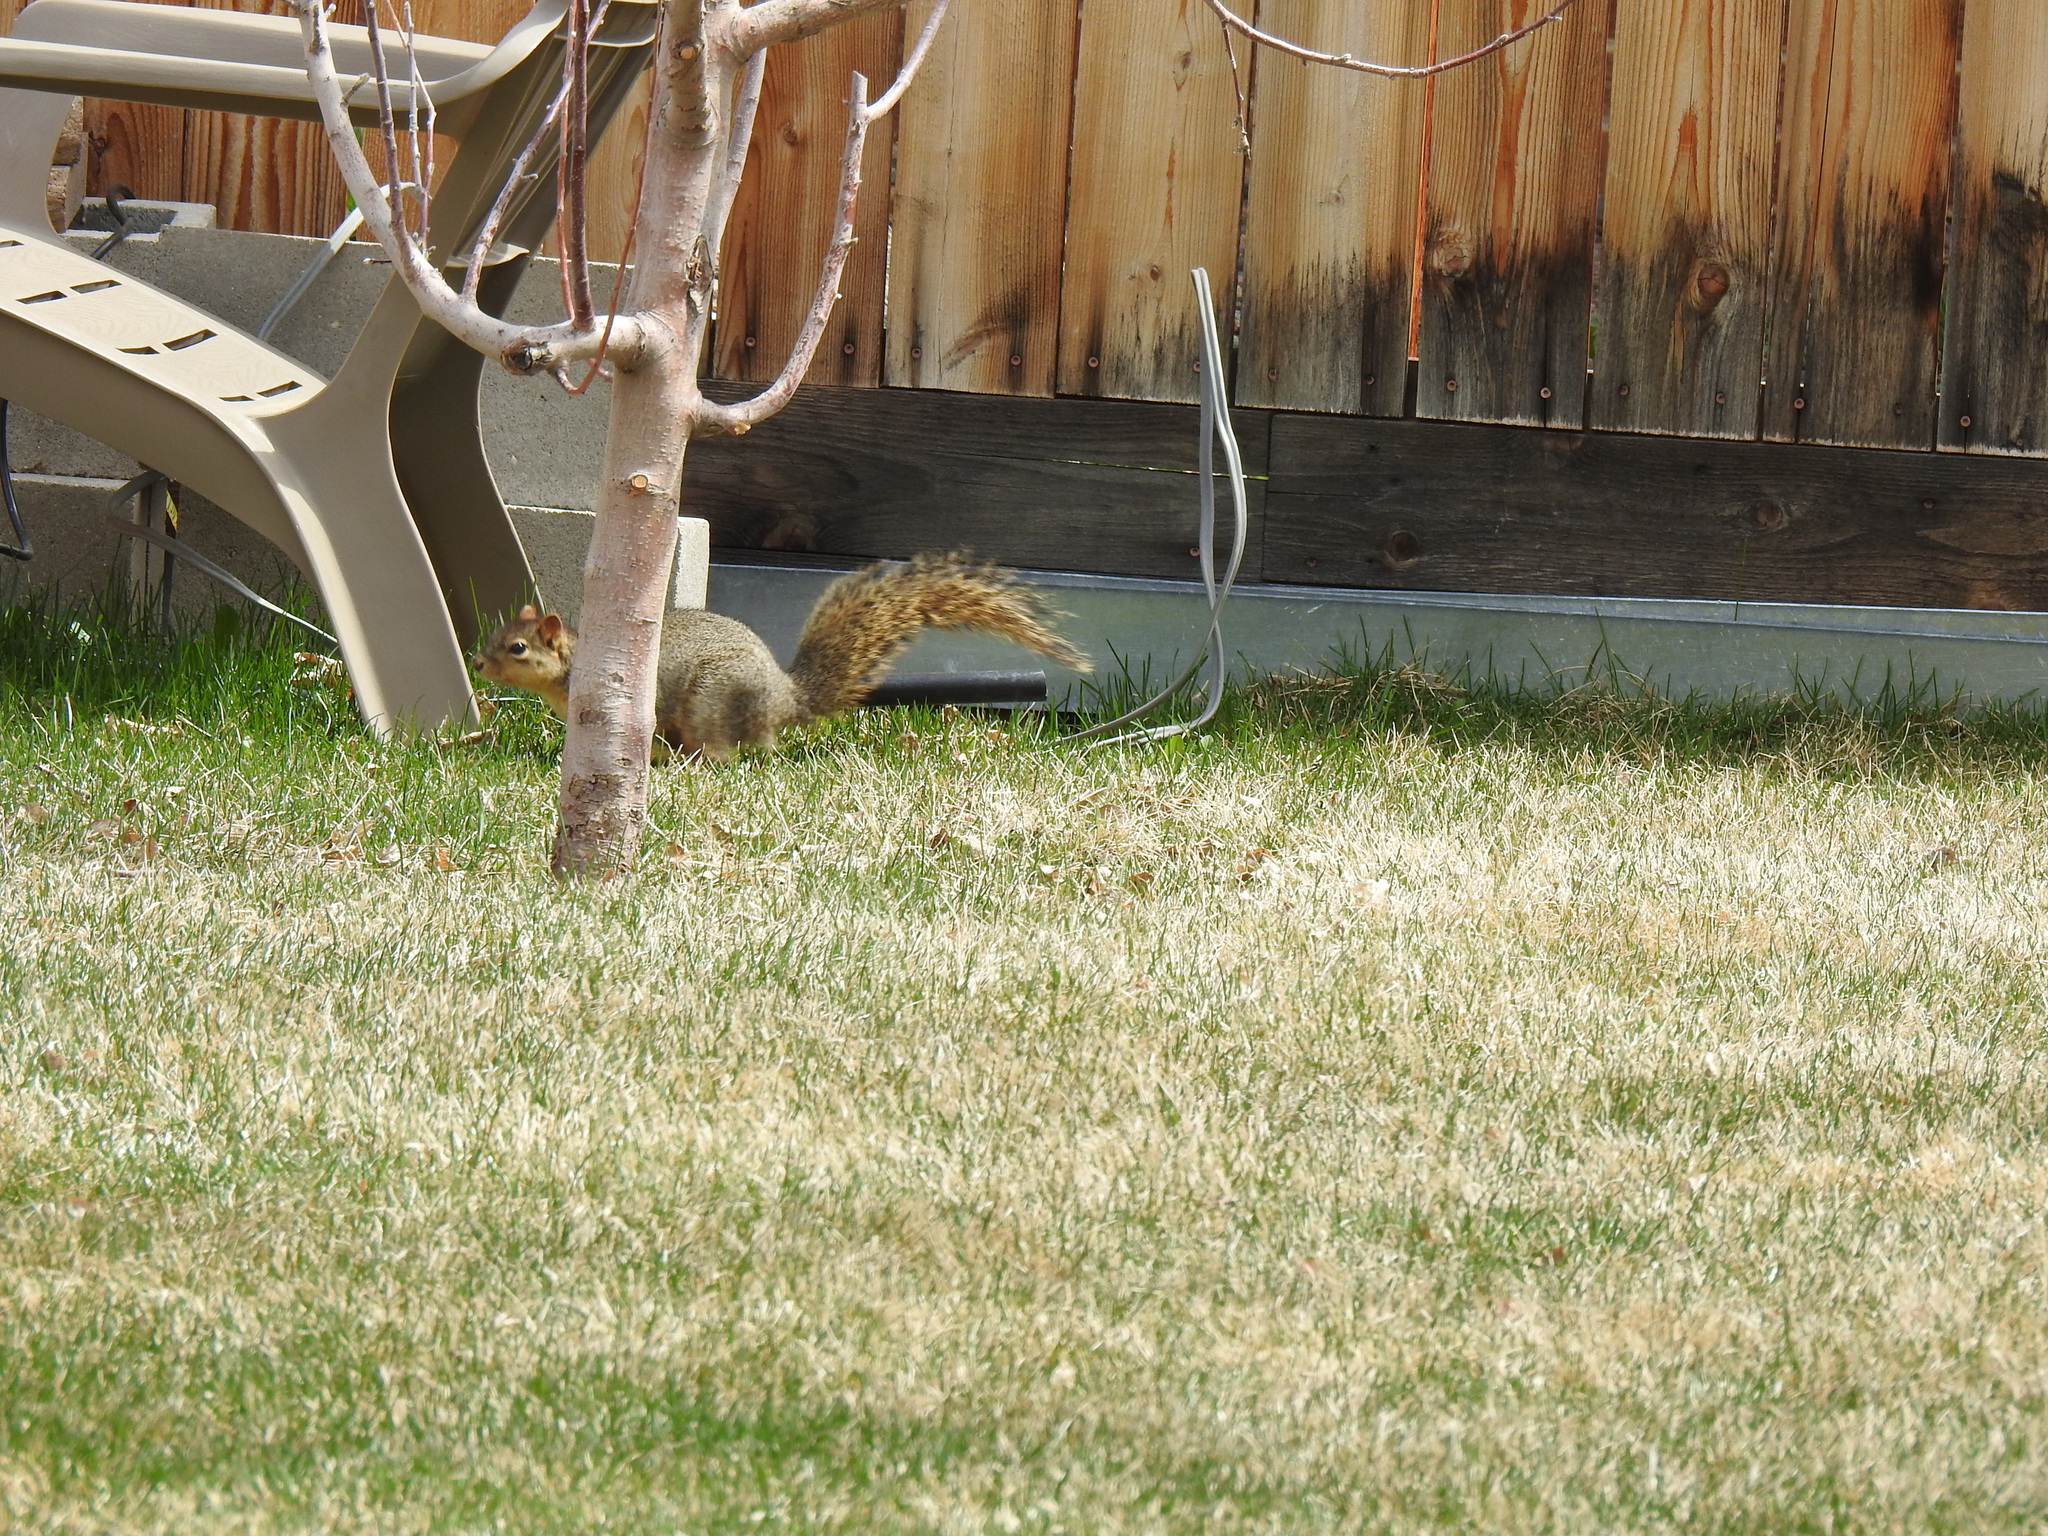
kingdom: Animalia
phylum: Chordata
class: Mammalia
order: Rodentia
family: Sciuridae
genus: Sciurus
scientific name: Sciurus niger
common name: Fox squirrel
